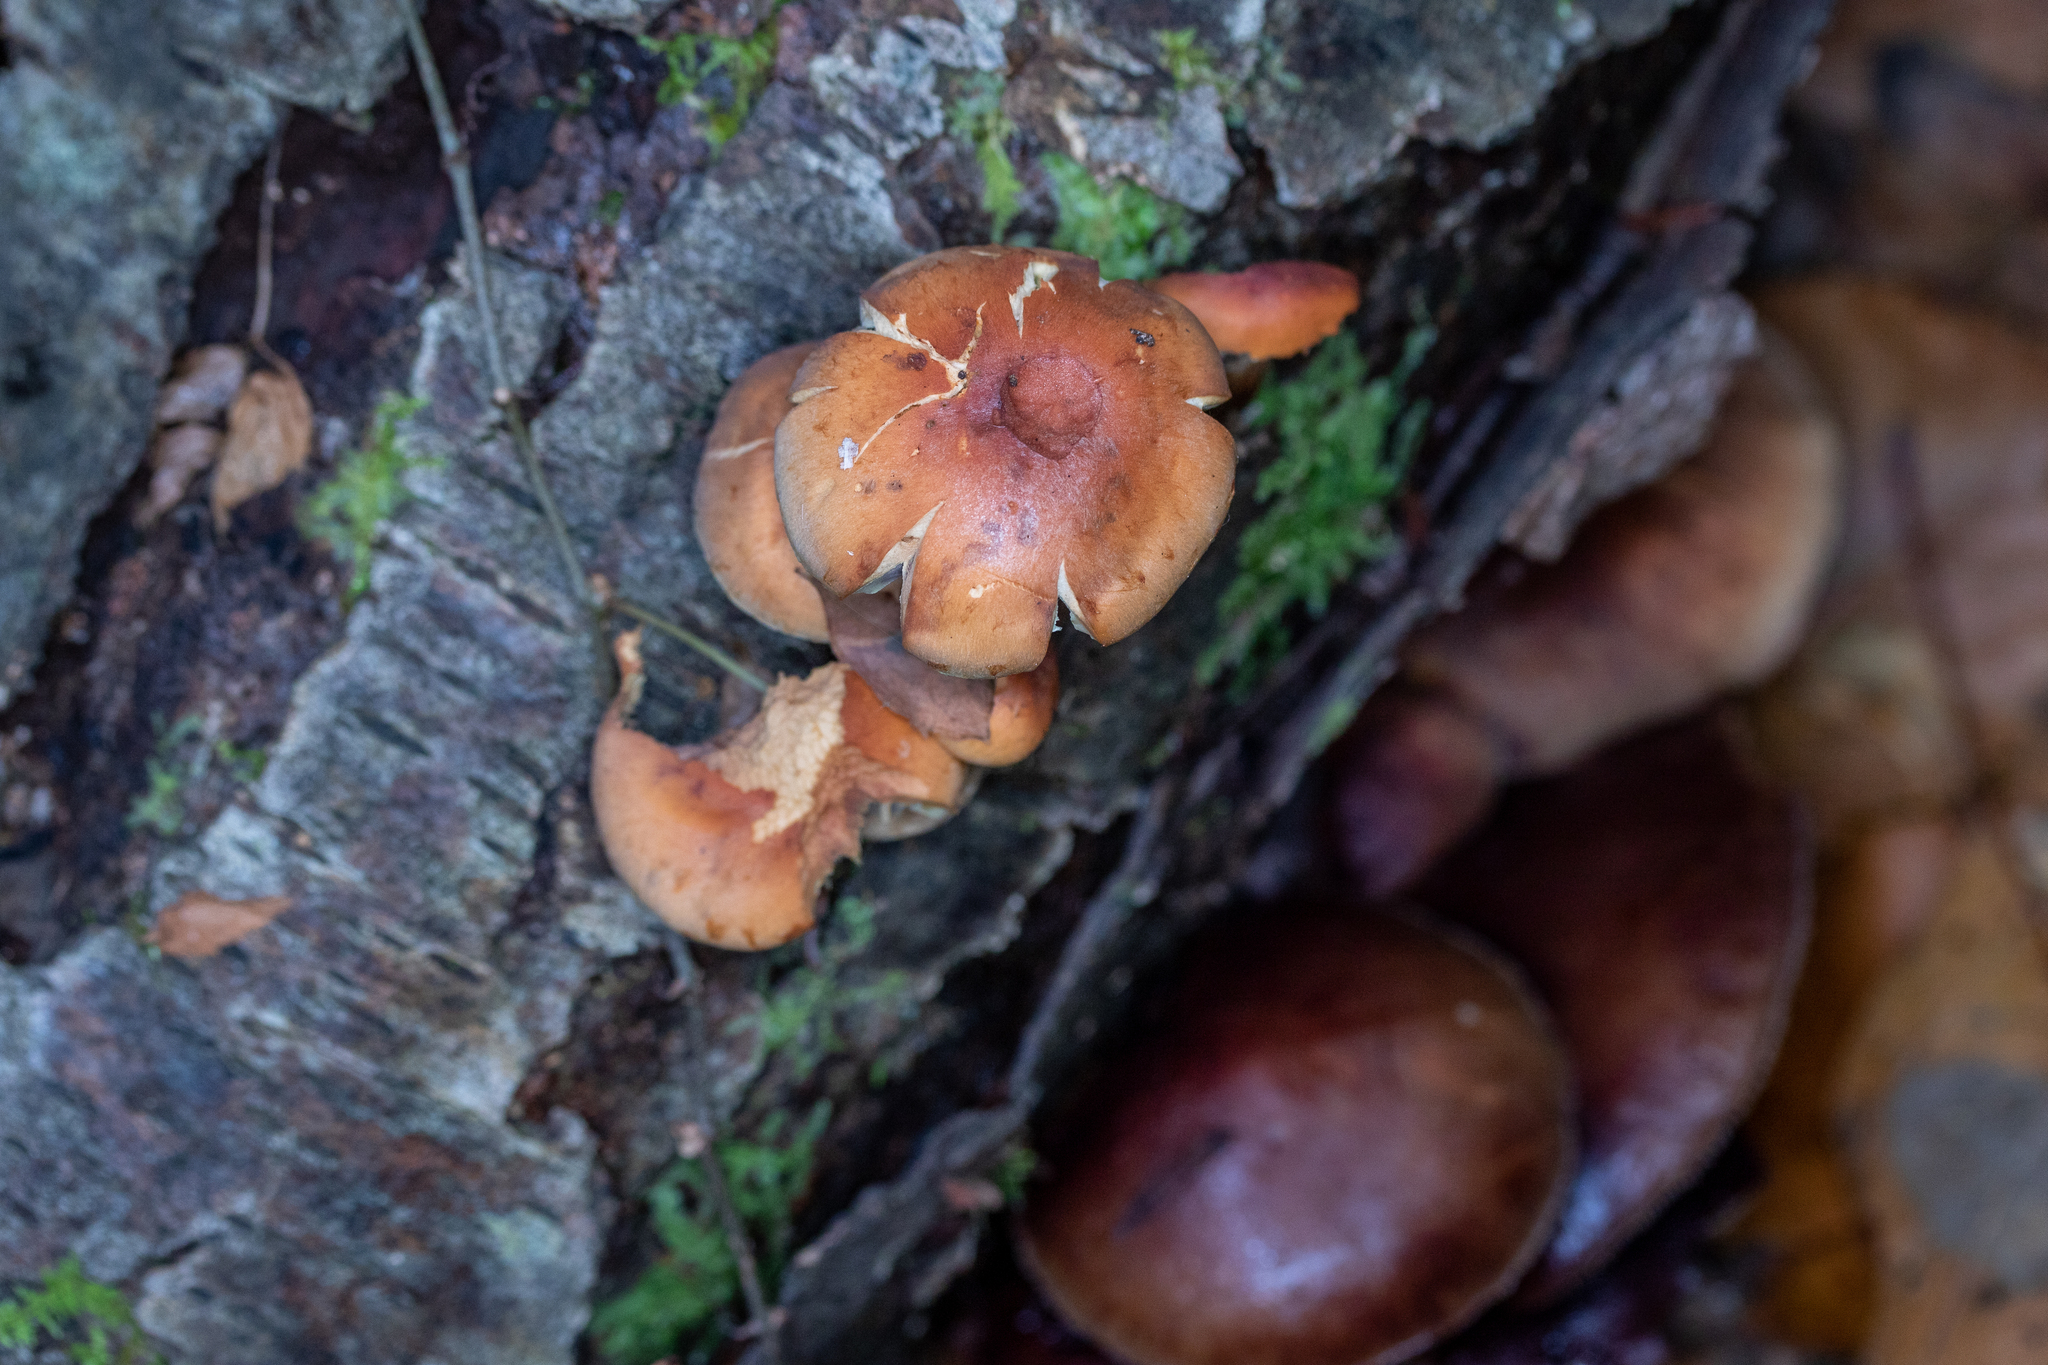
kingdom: Fungi
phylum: Basidiomycota
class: Agaricomycetes
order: Agaricales
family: Strophariaceae
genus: Hypholoma
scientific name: Hypholoma lateritium
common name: Brick caps
